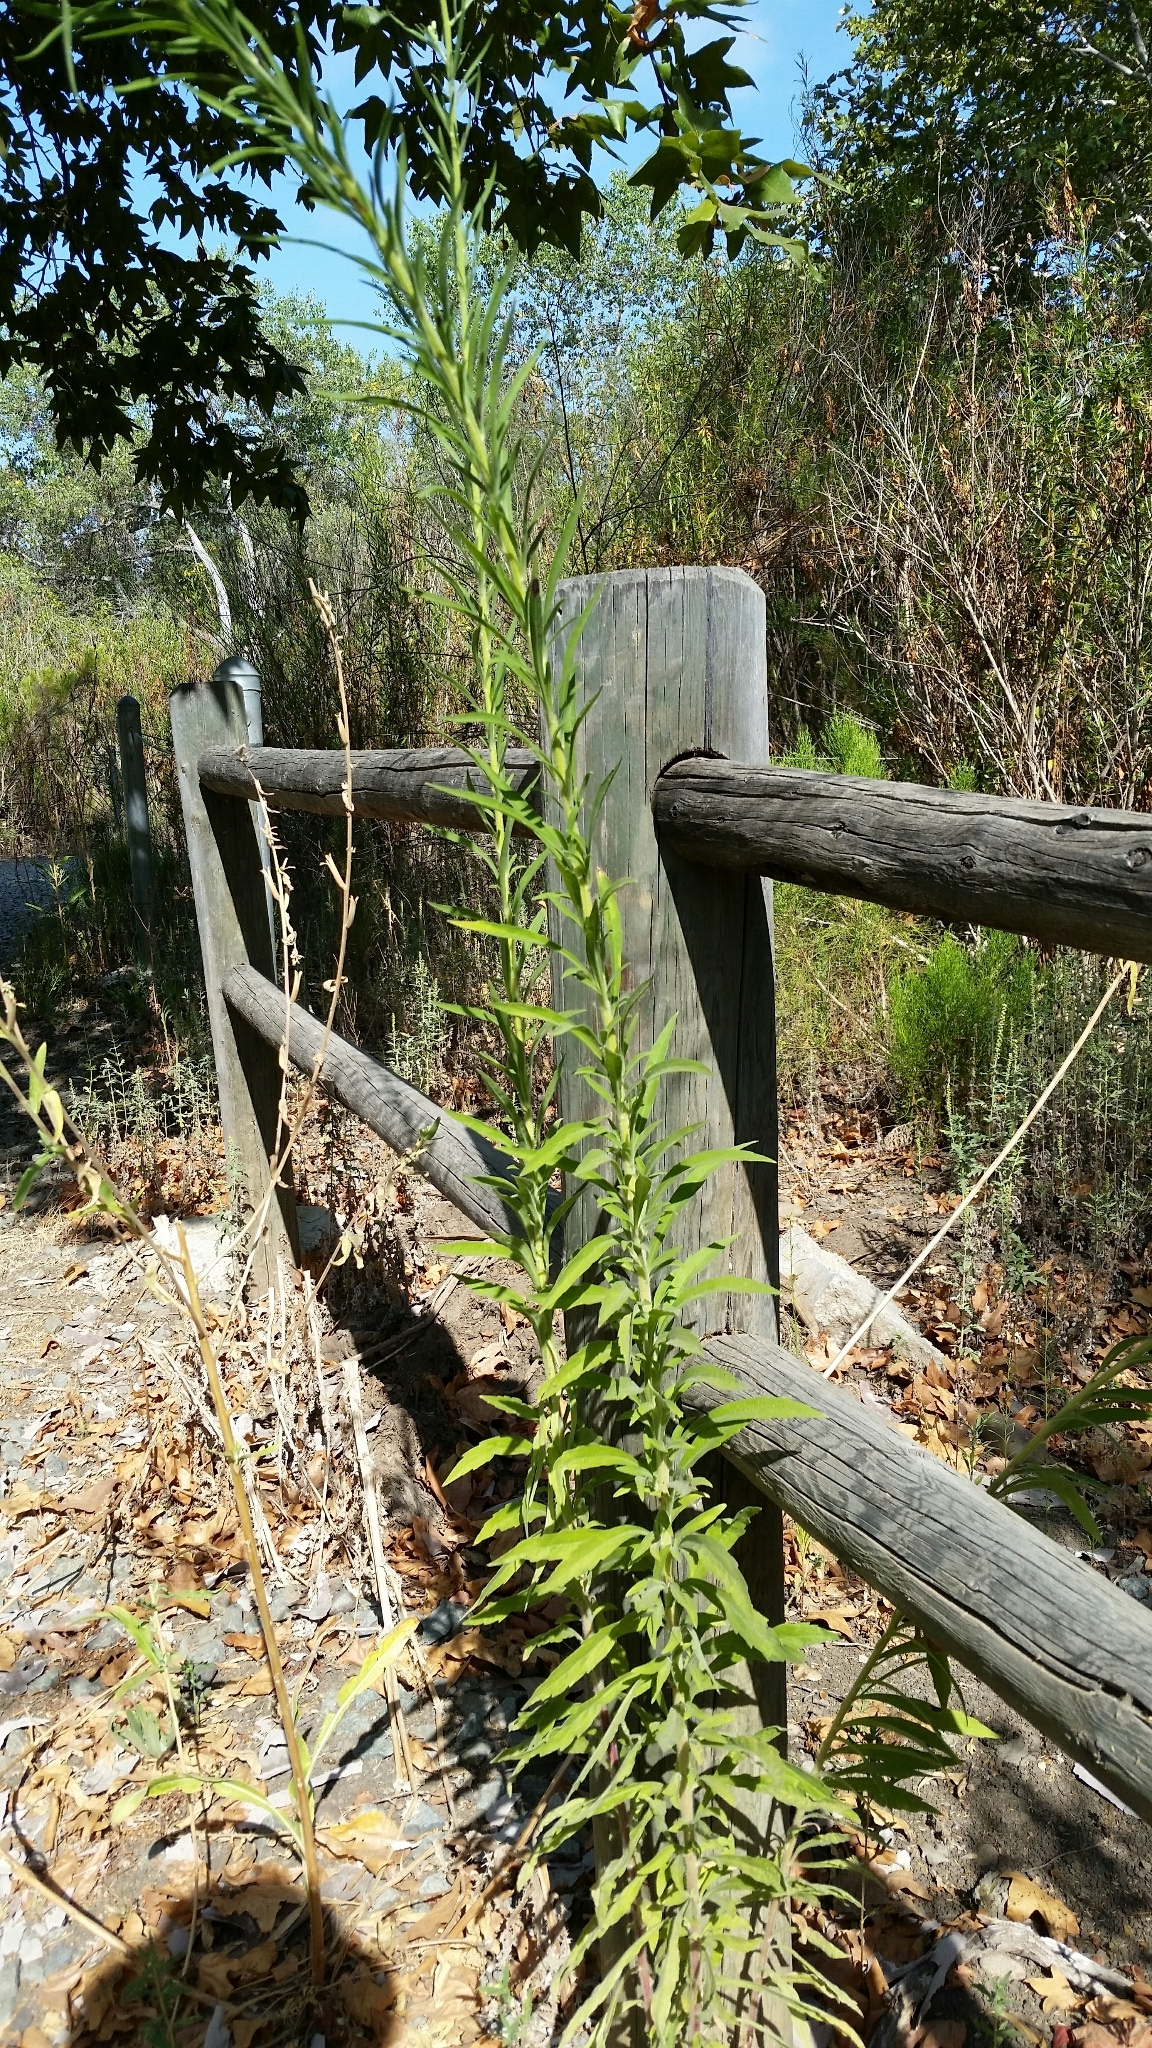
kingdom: Plantae
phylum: Tracheophyta
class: Magnoliopsida
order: Asterales
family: Asteraceae
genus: Erigeron
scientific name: Erigeron canadensis
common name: Canadian fleabane
